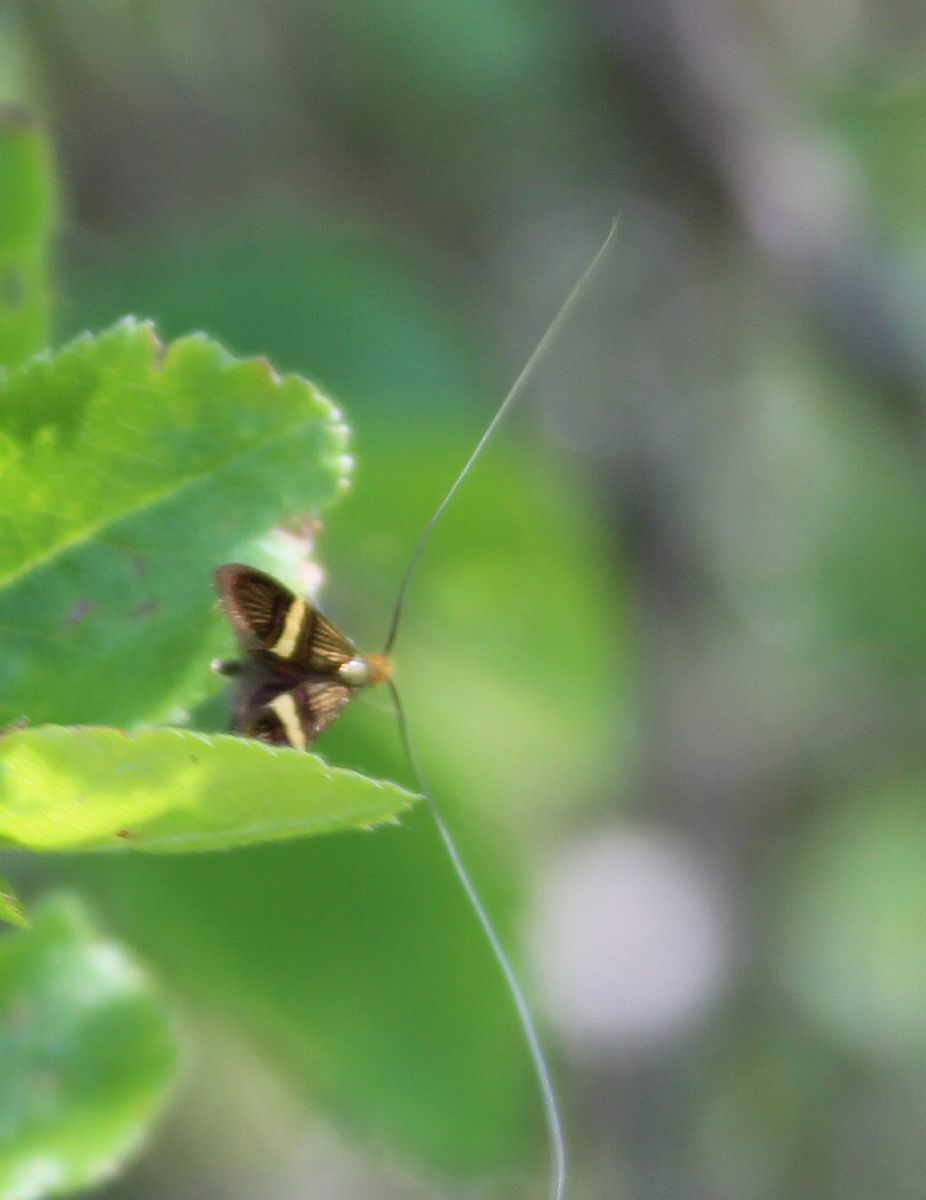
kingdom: Animalia
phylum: Arthropoda
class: Insecta
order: Lepidoptera
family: Adelidae
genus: Adela
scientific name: Adela croesella
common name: Small barred long-horn
